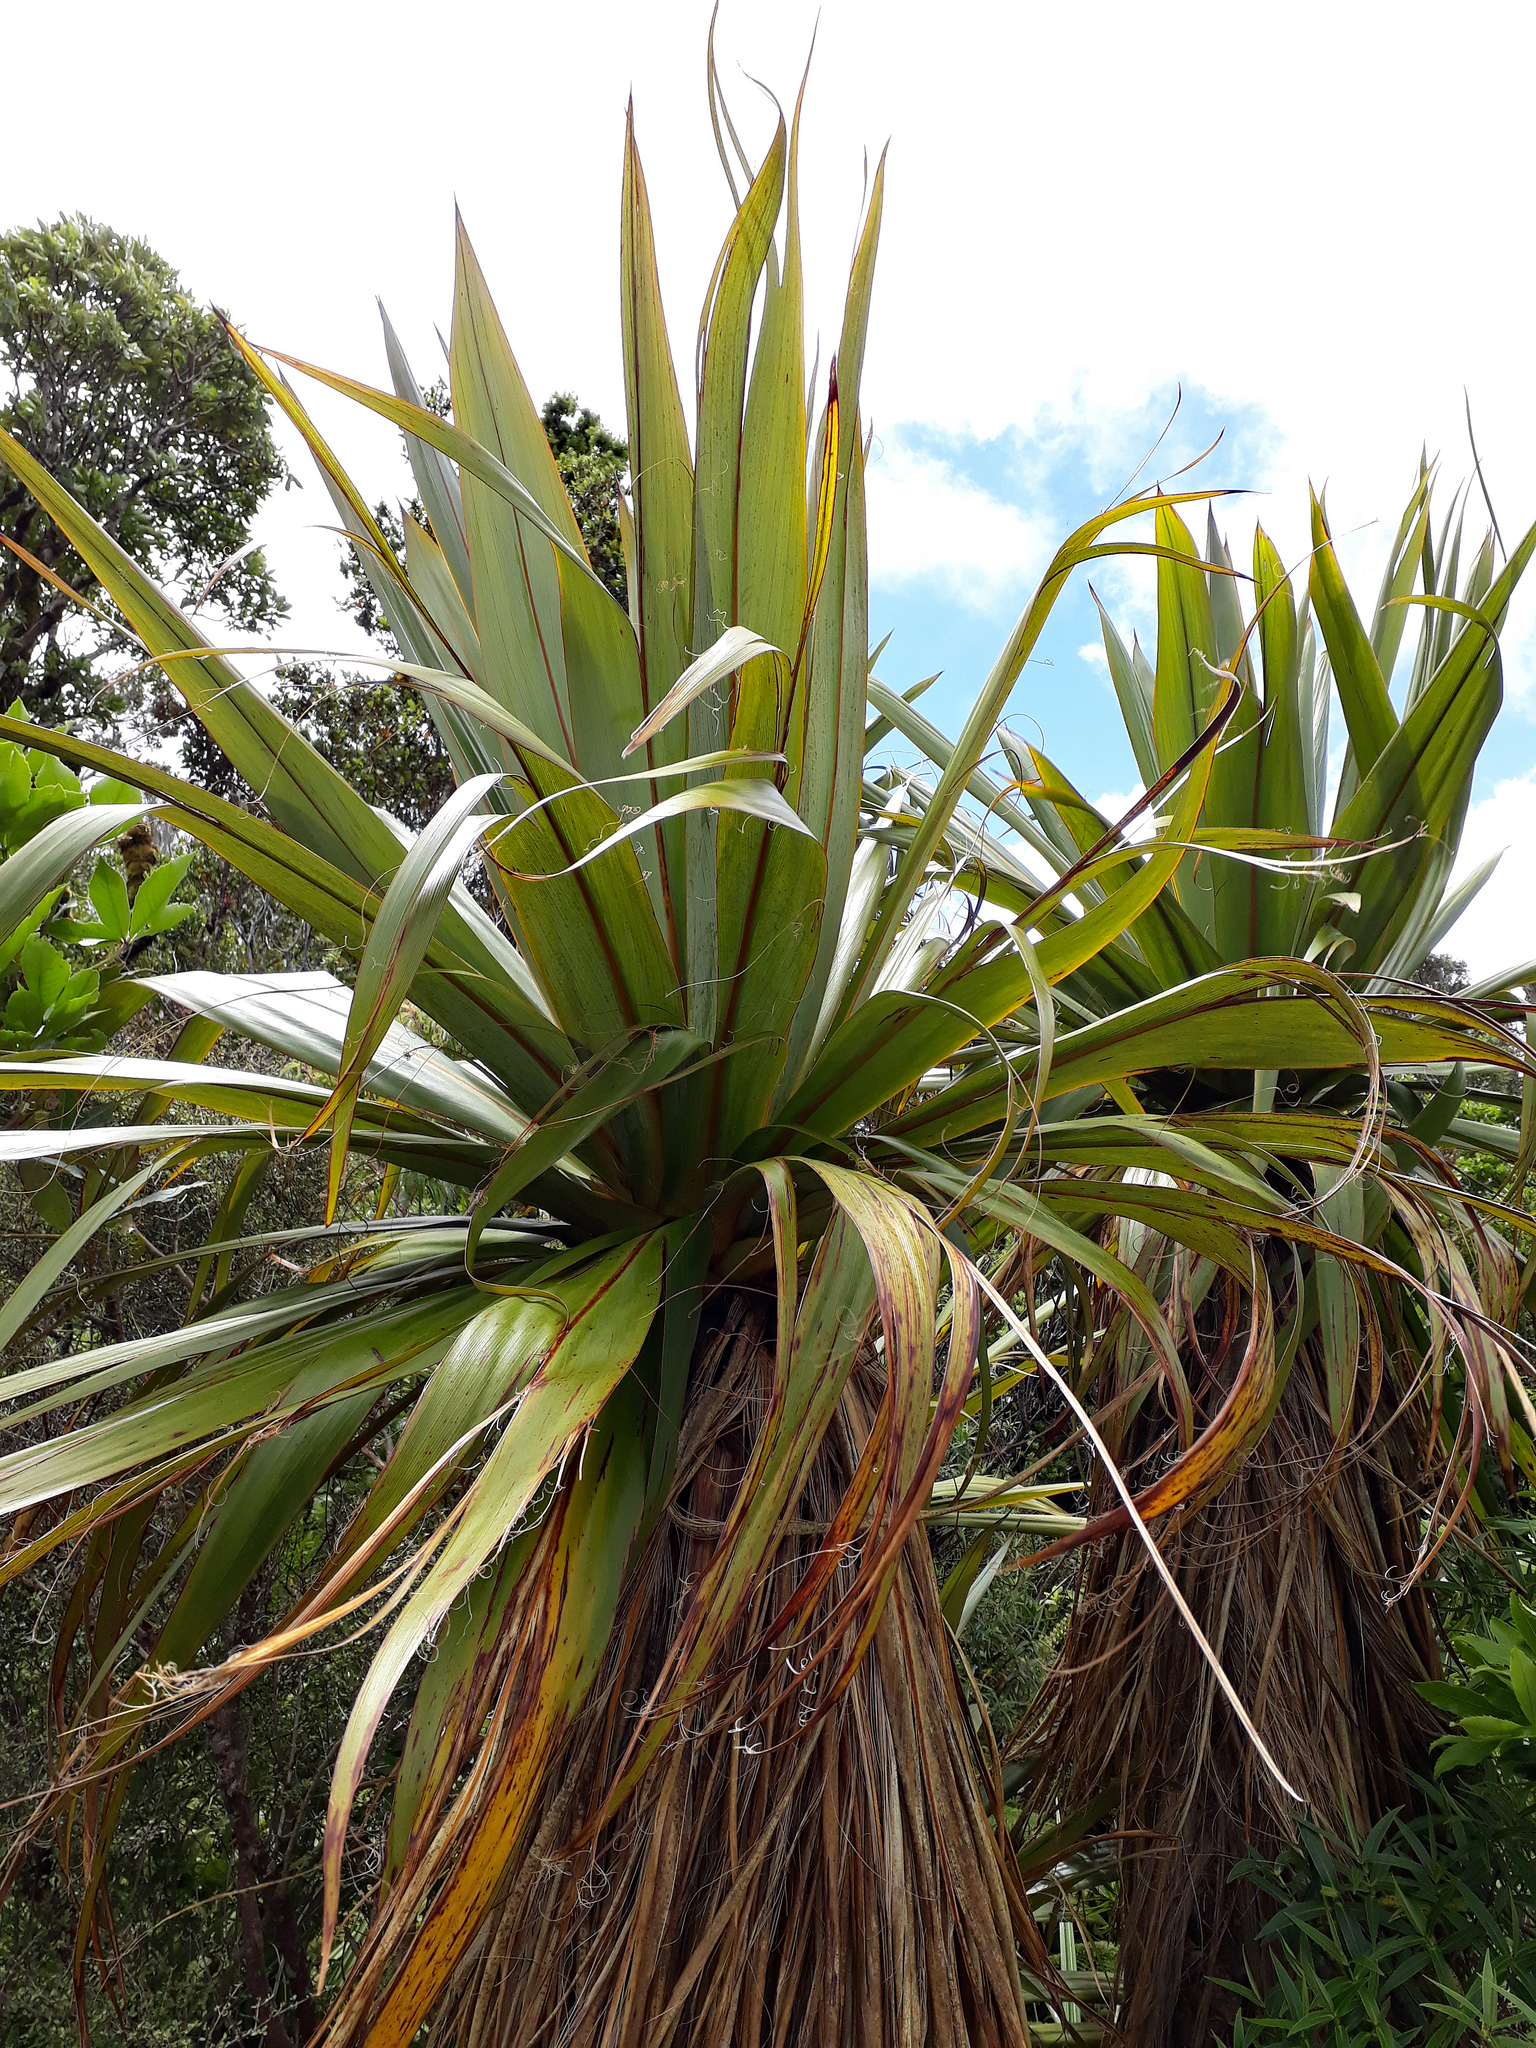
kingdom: Plantae
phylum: Tracheophyta
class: Liliopsida
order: Asparagales
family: Asparagaceae
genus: Cordyline
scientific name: Cordyline indivisa
